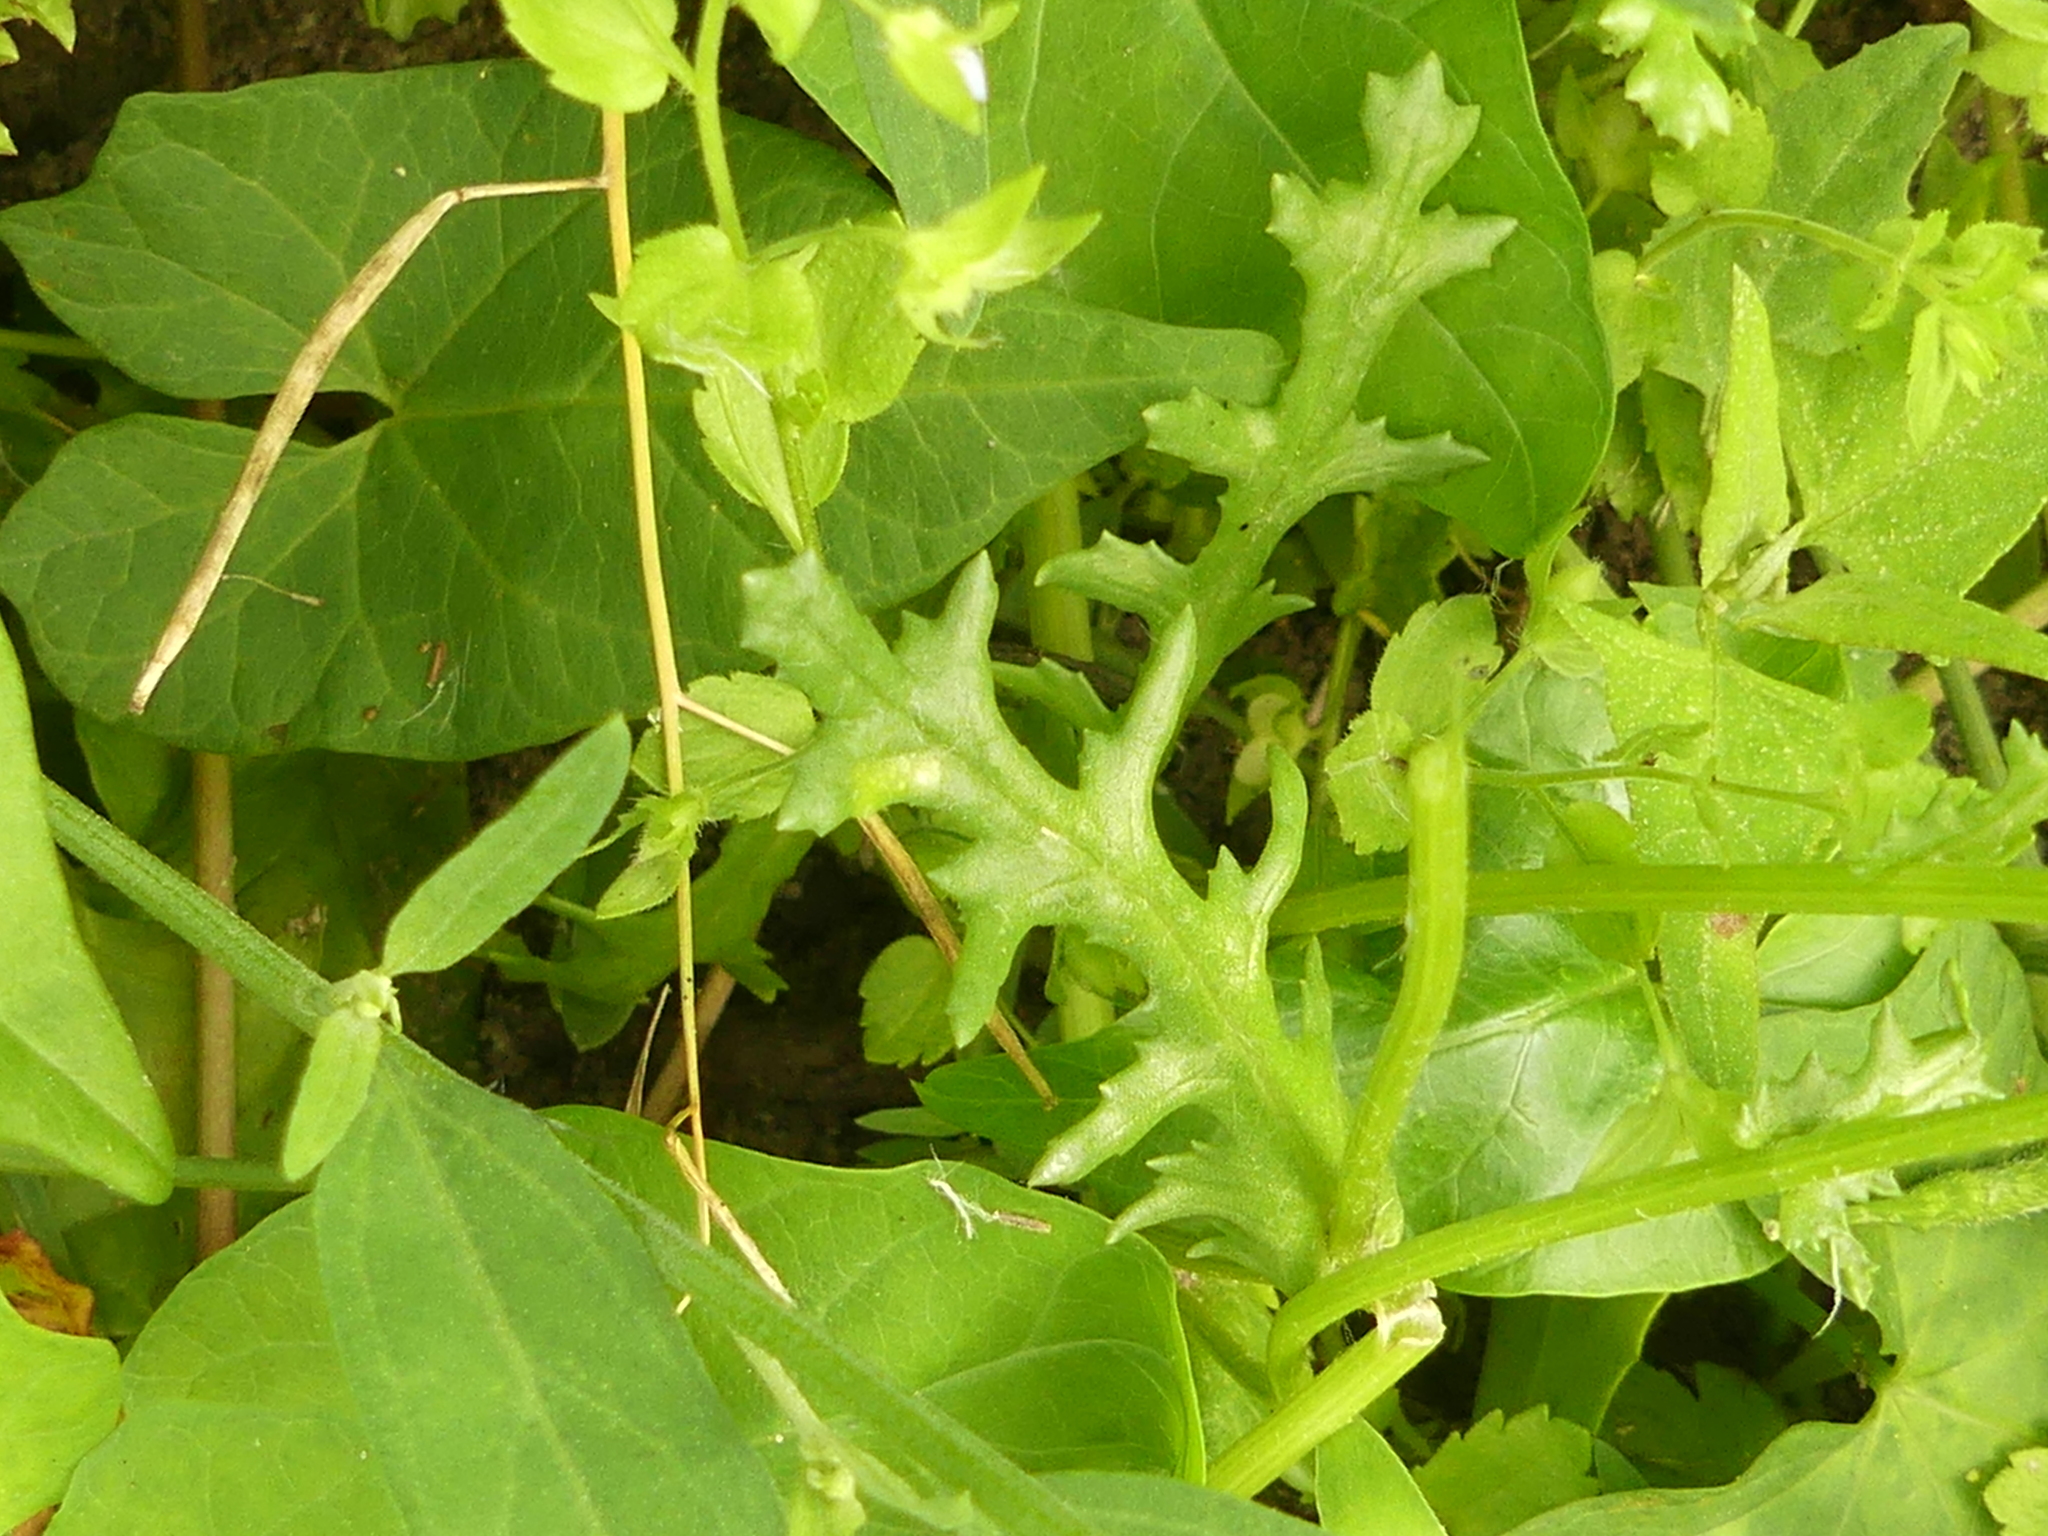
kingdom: Plantae
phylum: Tracheophyta
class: Magnoliopsida
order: Asterales
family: Asteraceae
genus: Senecio
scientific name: Senecio vulgaris
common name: Old-man-in-the-spring
